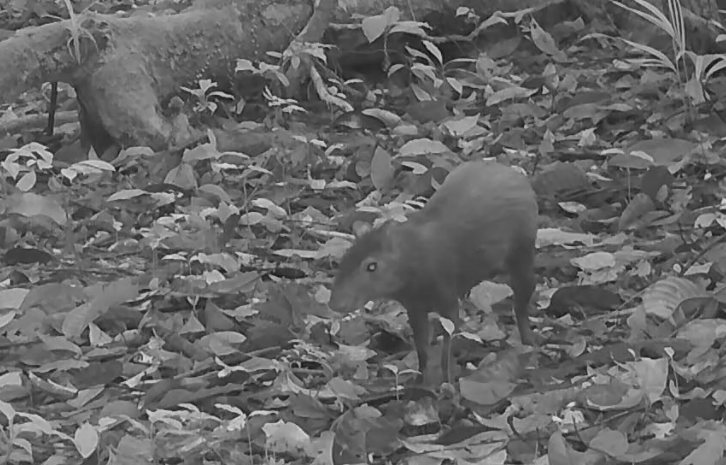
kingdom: Animalia
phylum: Chordata
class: Mammalia
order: Rodentia
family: Dasyproctidae
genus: Dasyprocta
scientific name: Dasyprocta leporina
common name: Red-rumped agouti
